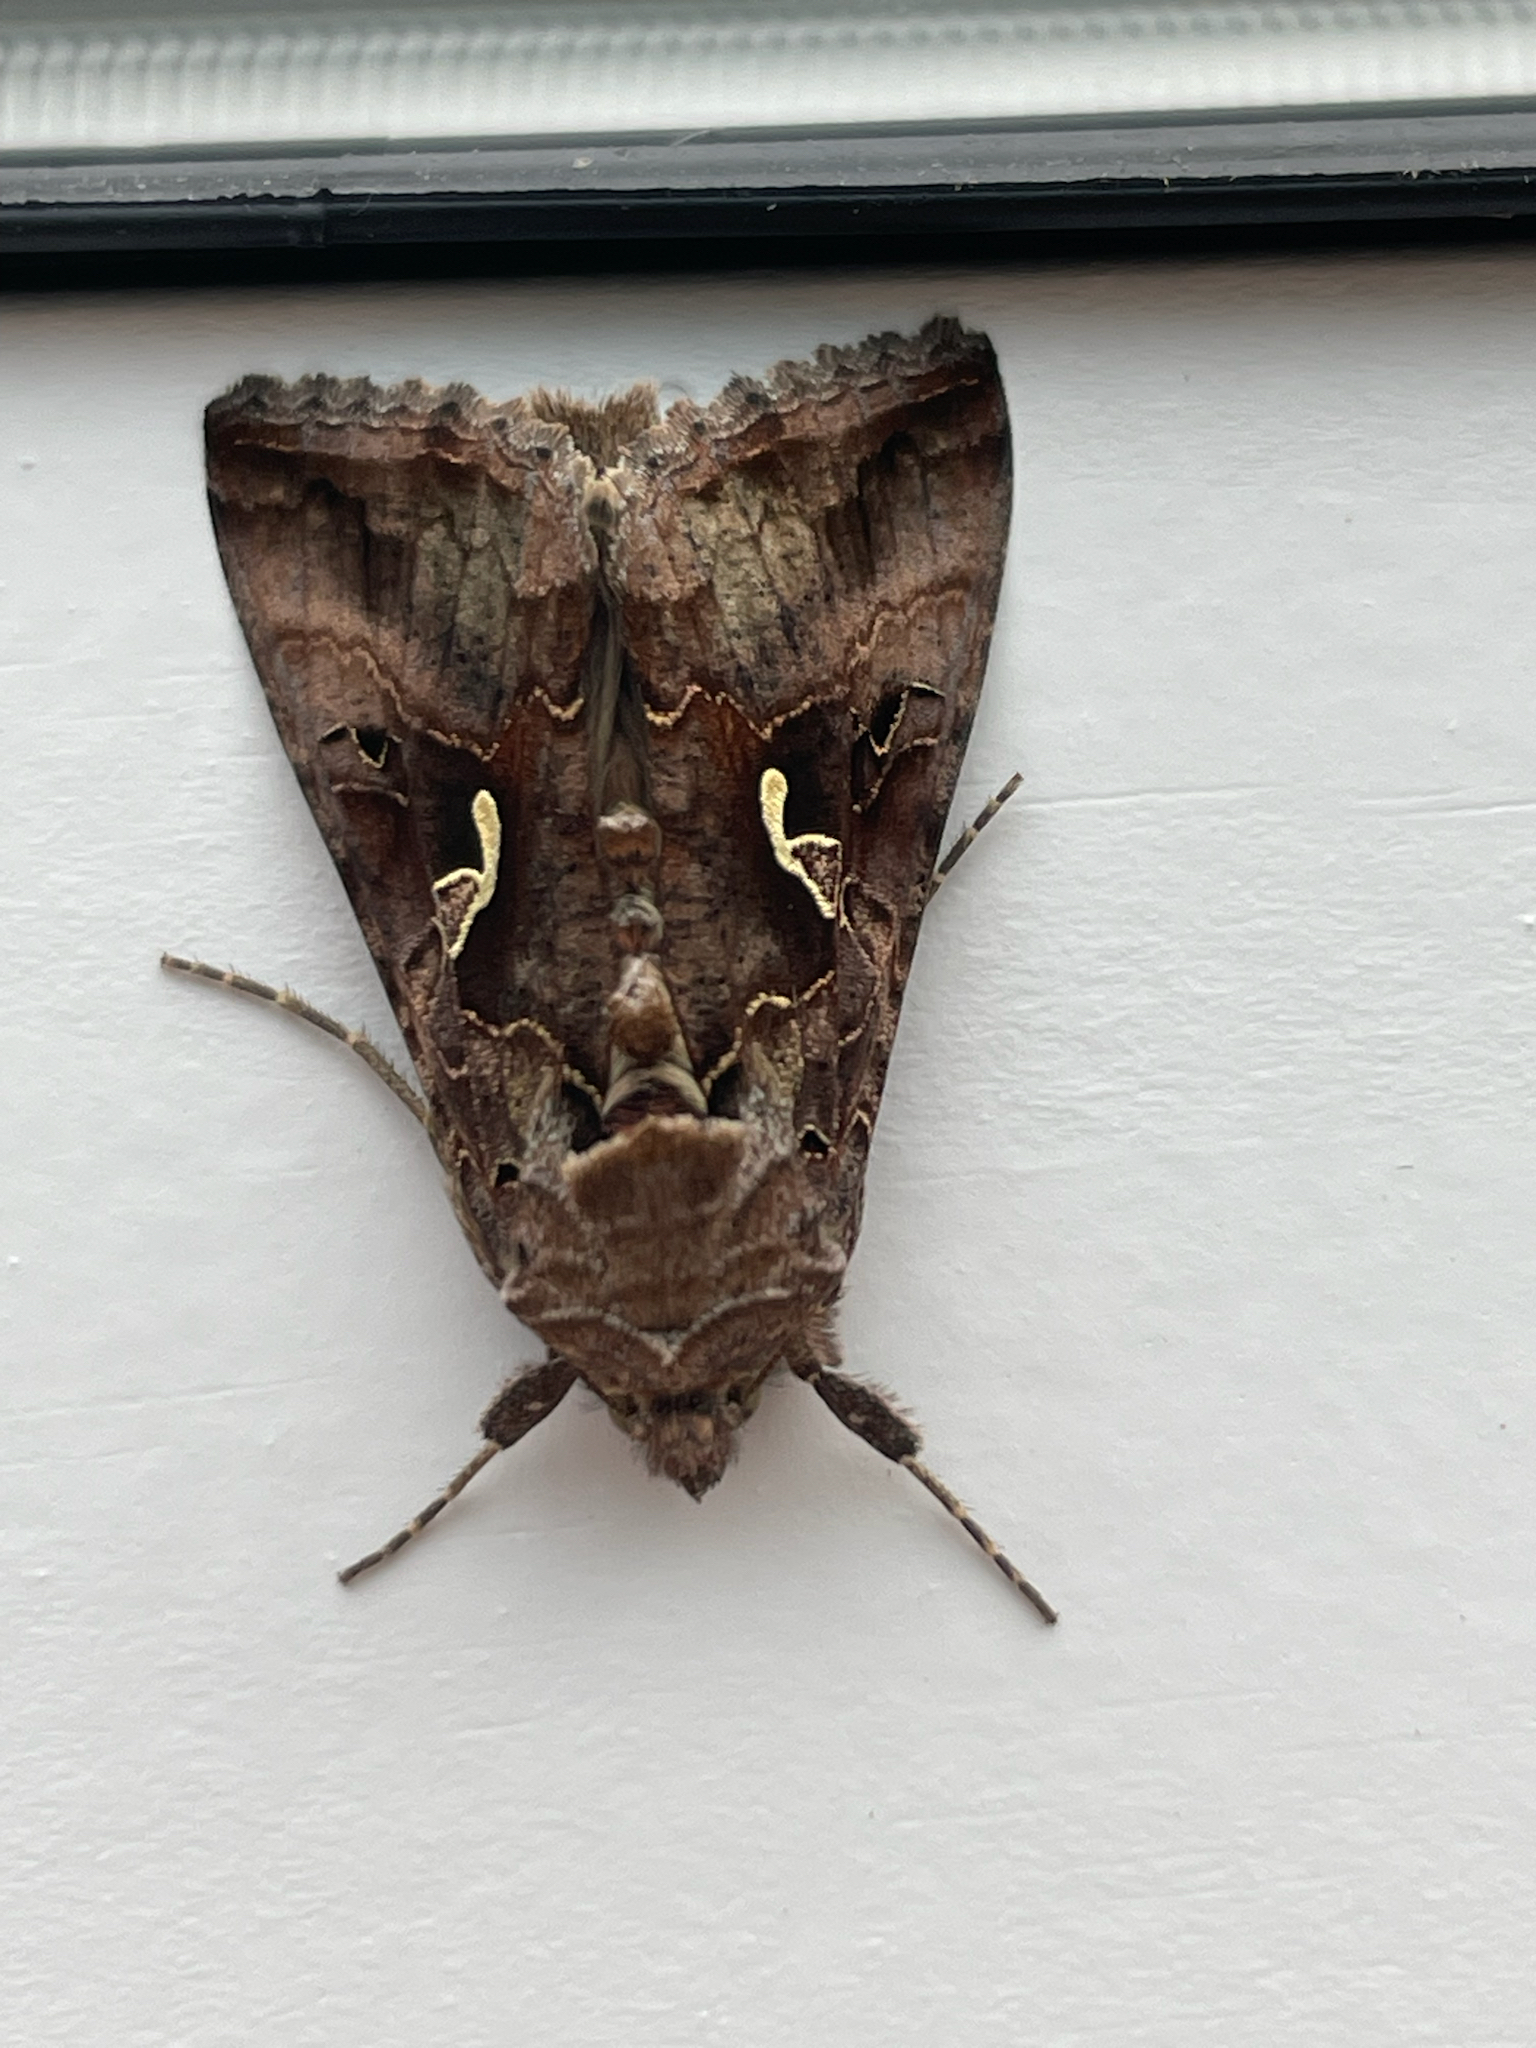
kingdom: Animalia
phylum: Arthropoda
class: Insecta
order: Lepidoptera
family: Noctuidae
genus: Autographa
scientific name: Autographa gamma
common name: Silver y
